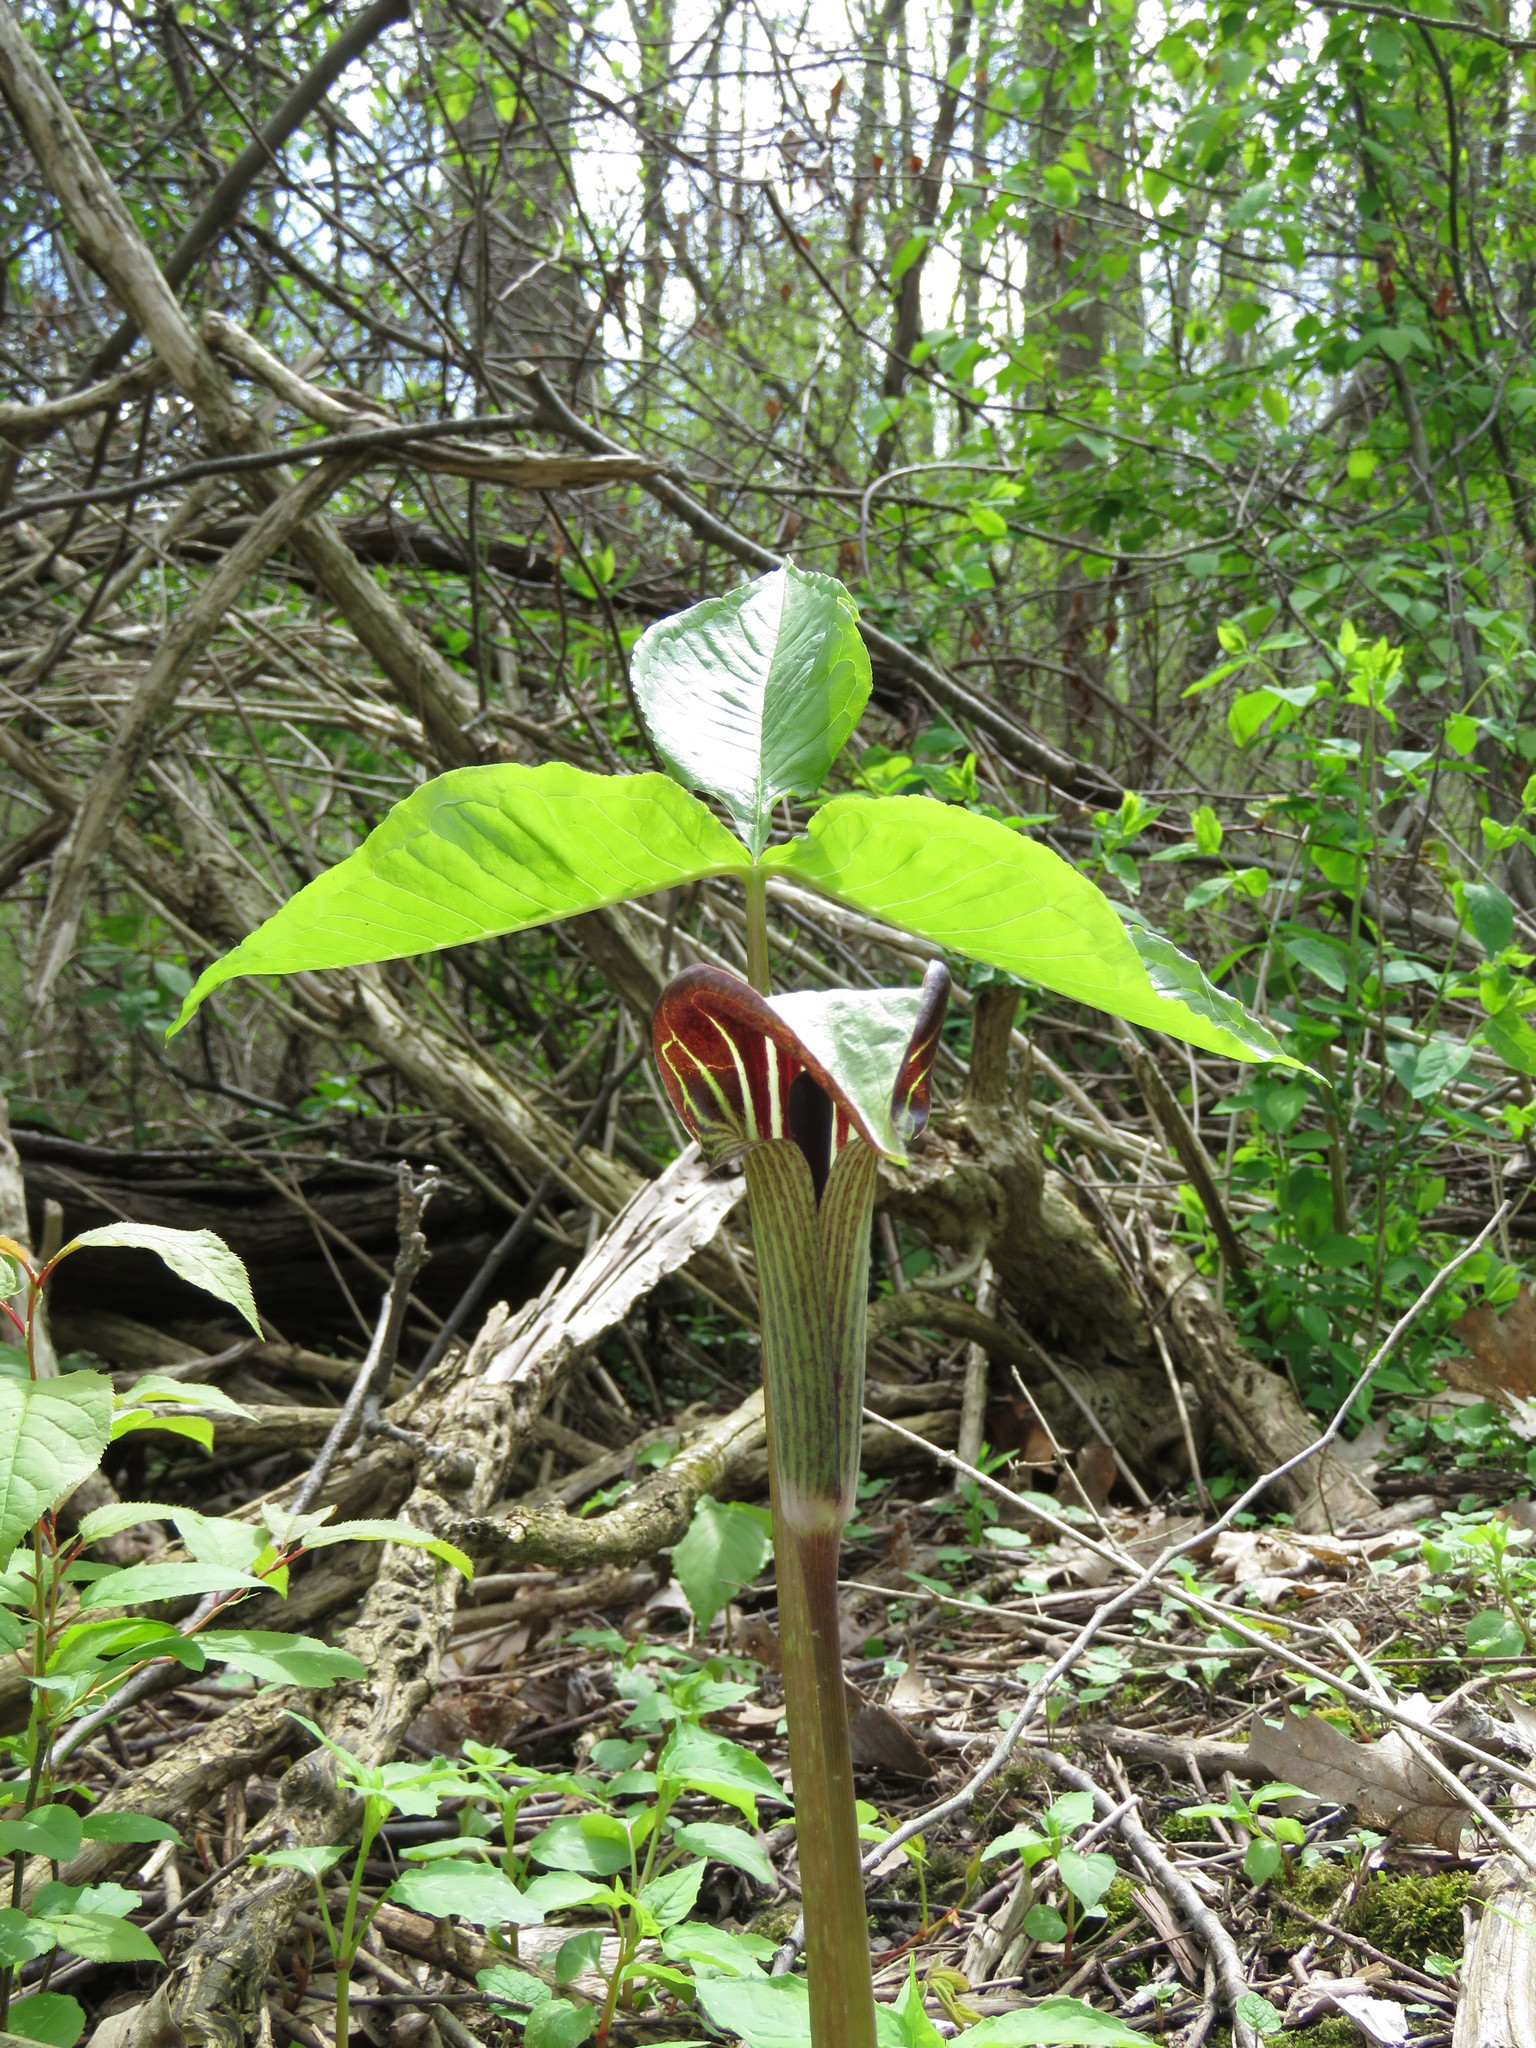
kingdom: Plantae
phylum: Tracheophyta
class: Liliopsida
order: Alismatales
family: Araceae
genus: Arisaema
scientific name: Arisaema triphyllum
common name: Jack-in-the-pulpit
